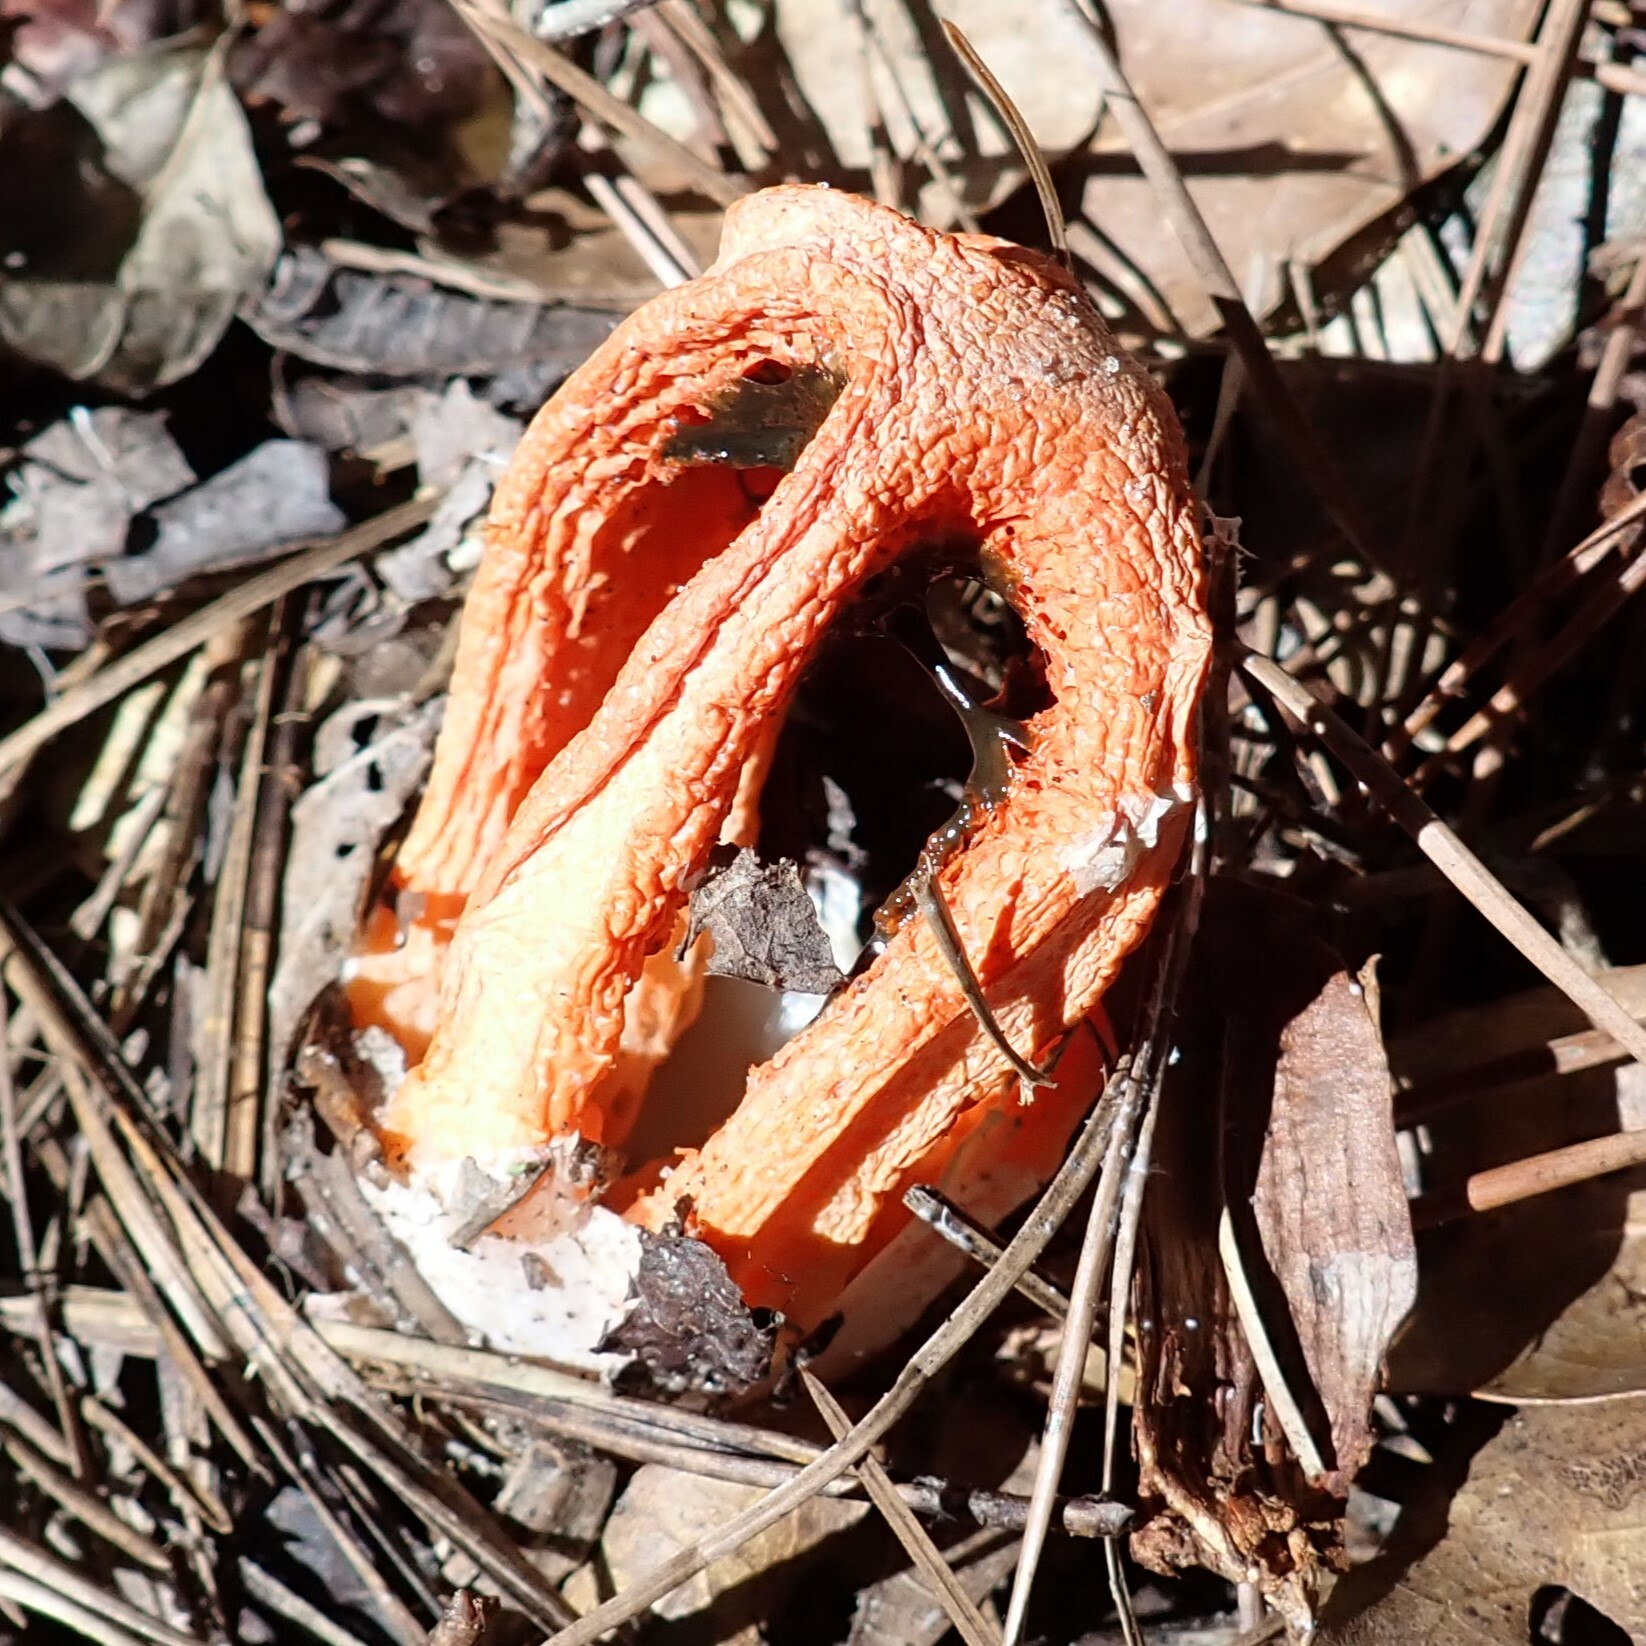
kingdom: Fungi
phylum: Basidiomycota
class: Agaricomycetes
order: Phallales
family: Phallaceae
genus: Clathrus
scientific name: Clathrus columnatus
